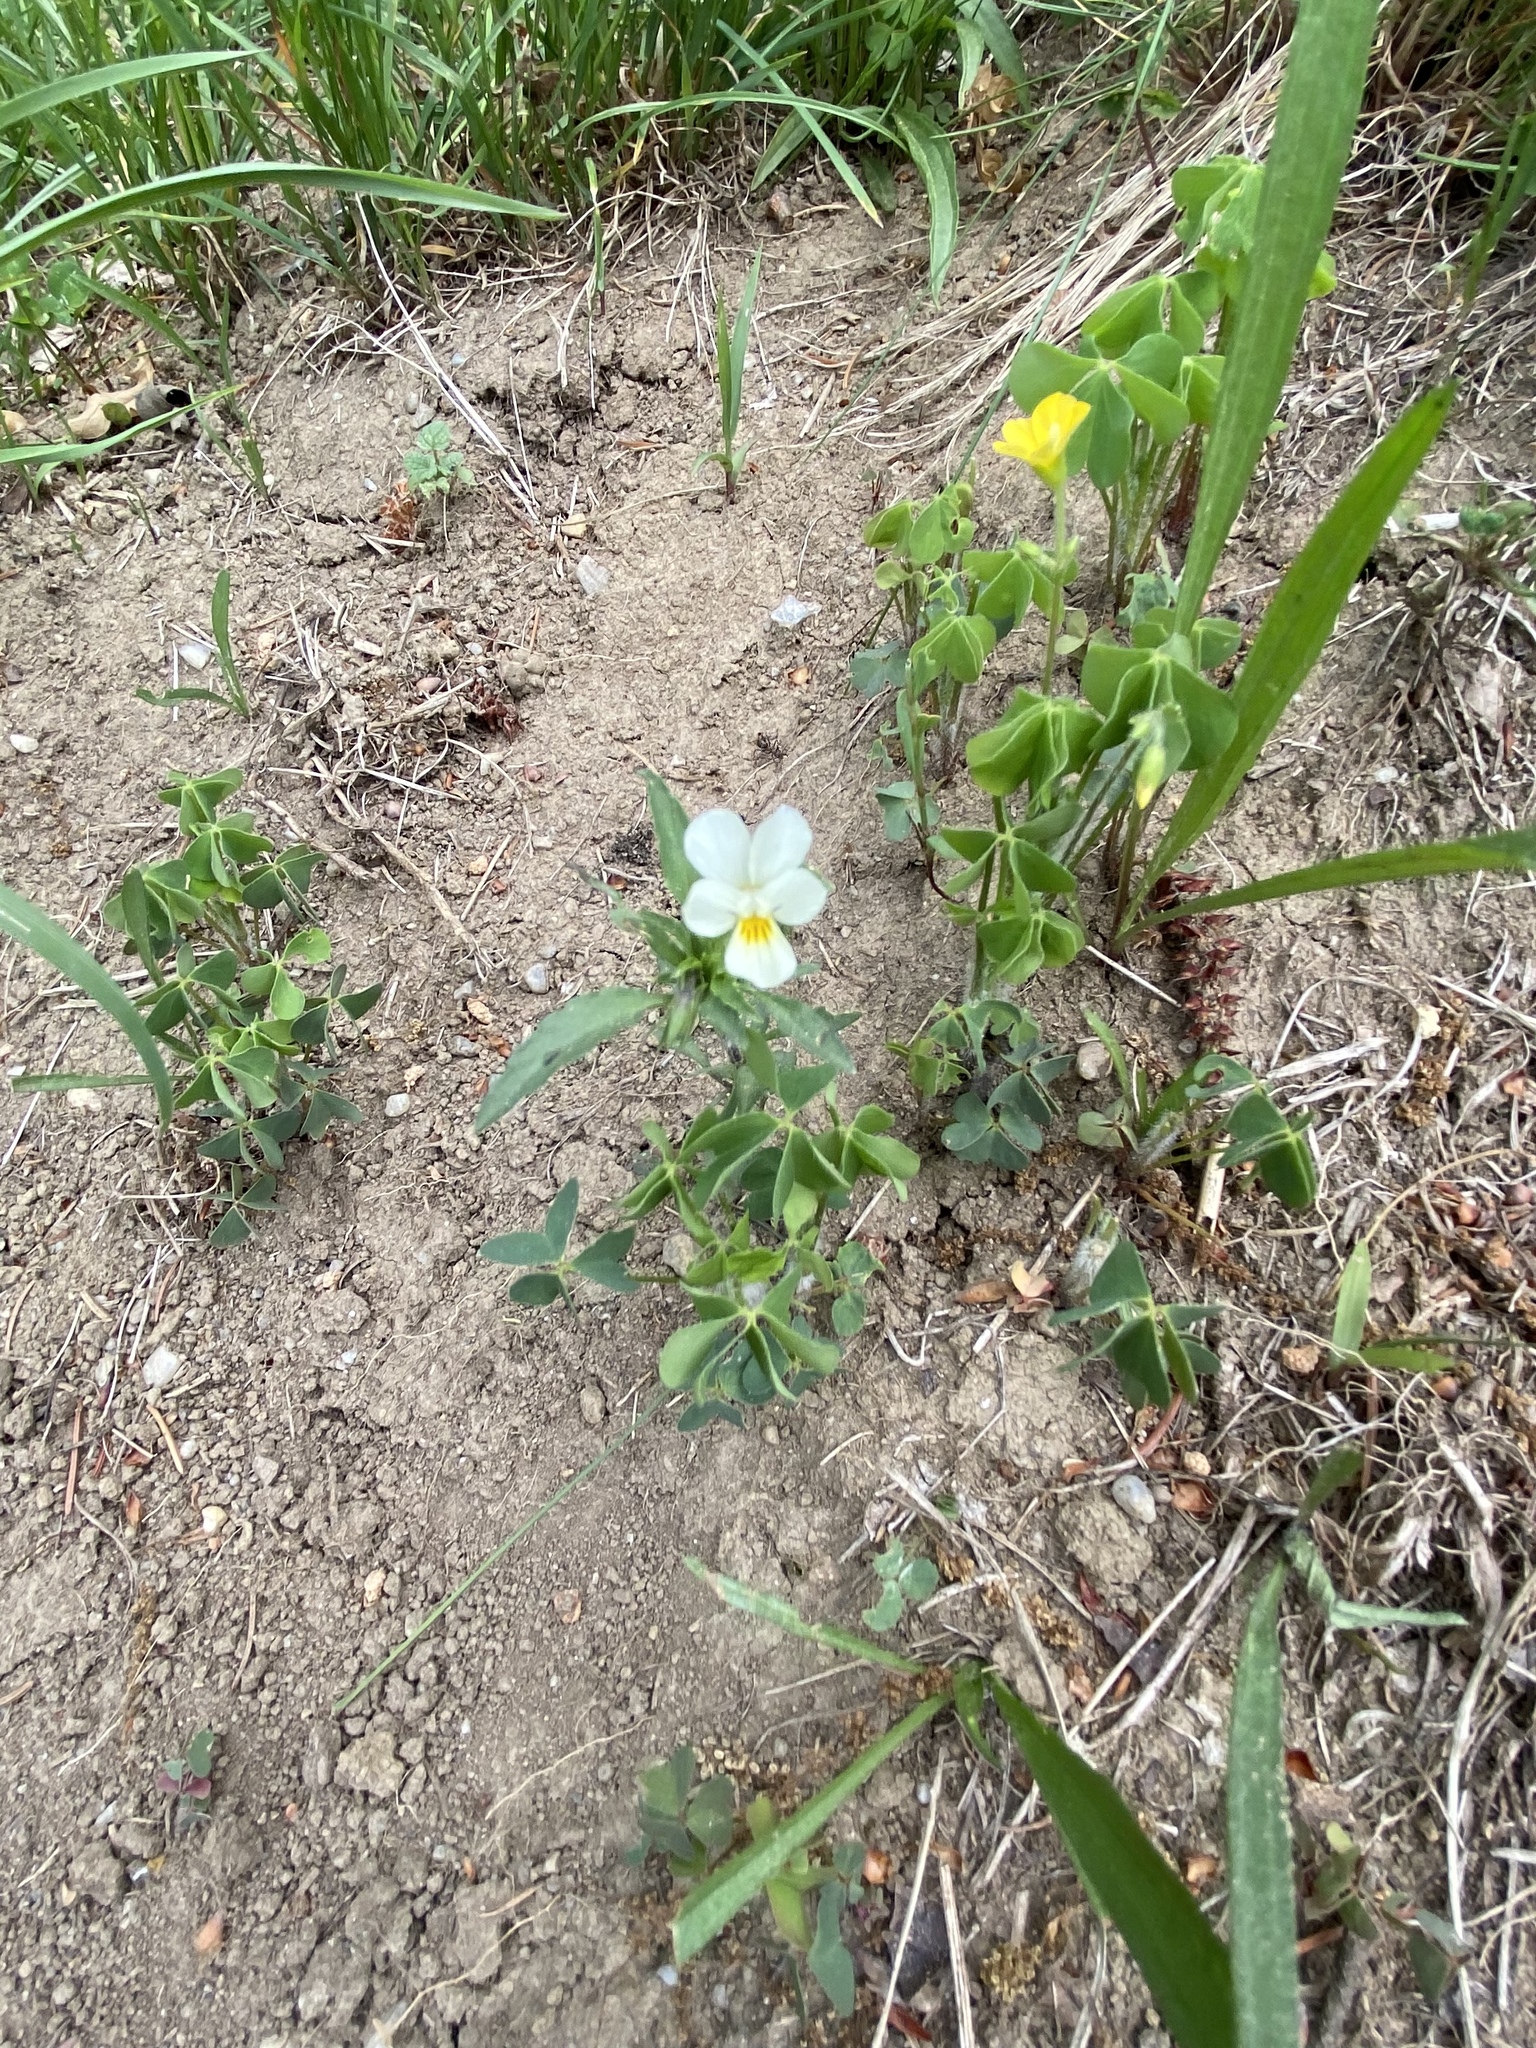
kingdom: Plantae
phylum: Tracheophyta
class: Magnoliopsida
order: Malpighiales
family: Violaceae
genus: Viola
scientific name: Viola arvensis
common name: Field pansy
